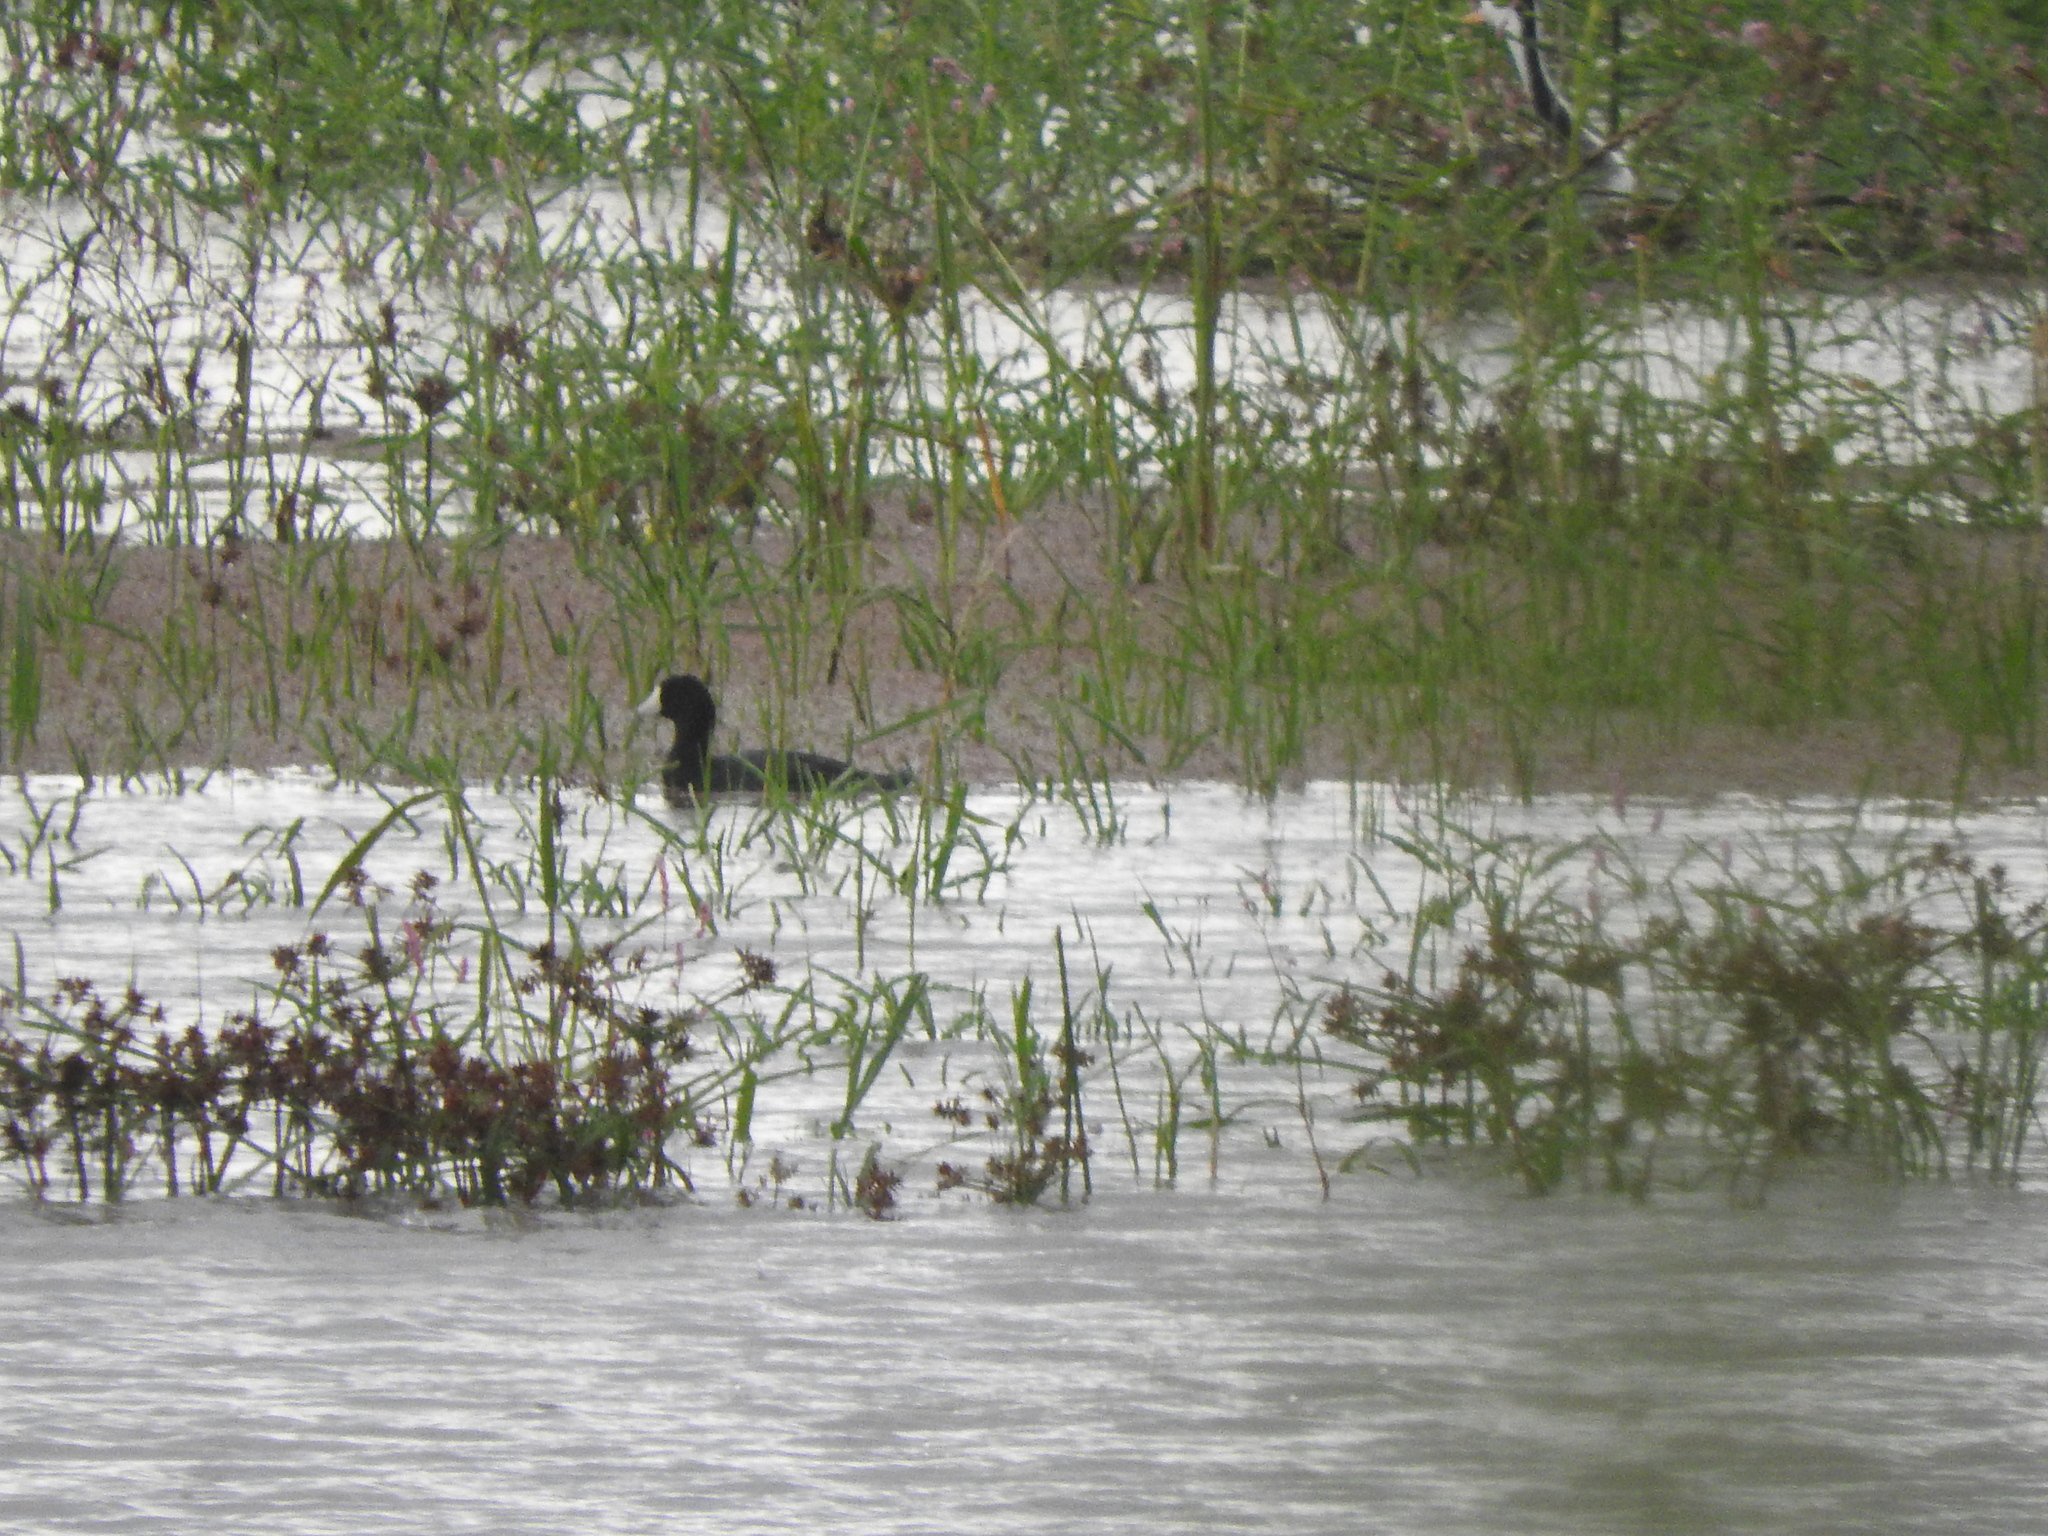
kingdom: Animalia
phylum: Chordata
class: Aves
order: Gruiformes
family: Rallidae
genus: Fulica
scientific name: Fulica americana
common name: American coot
